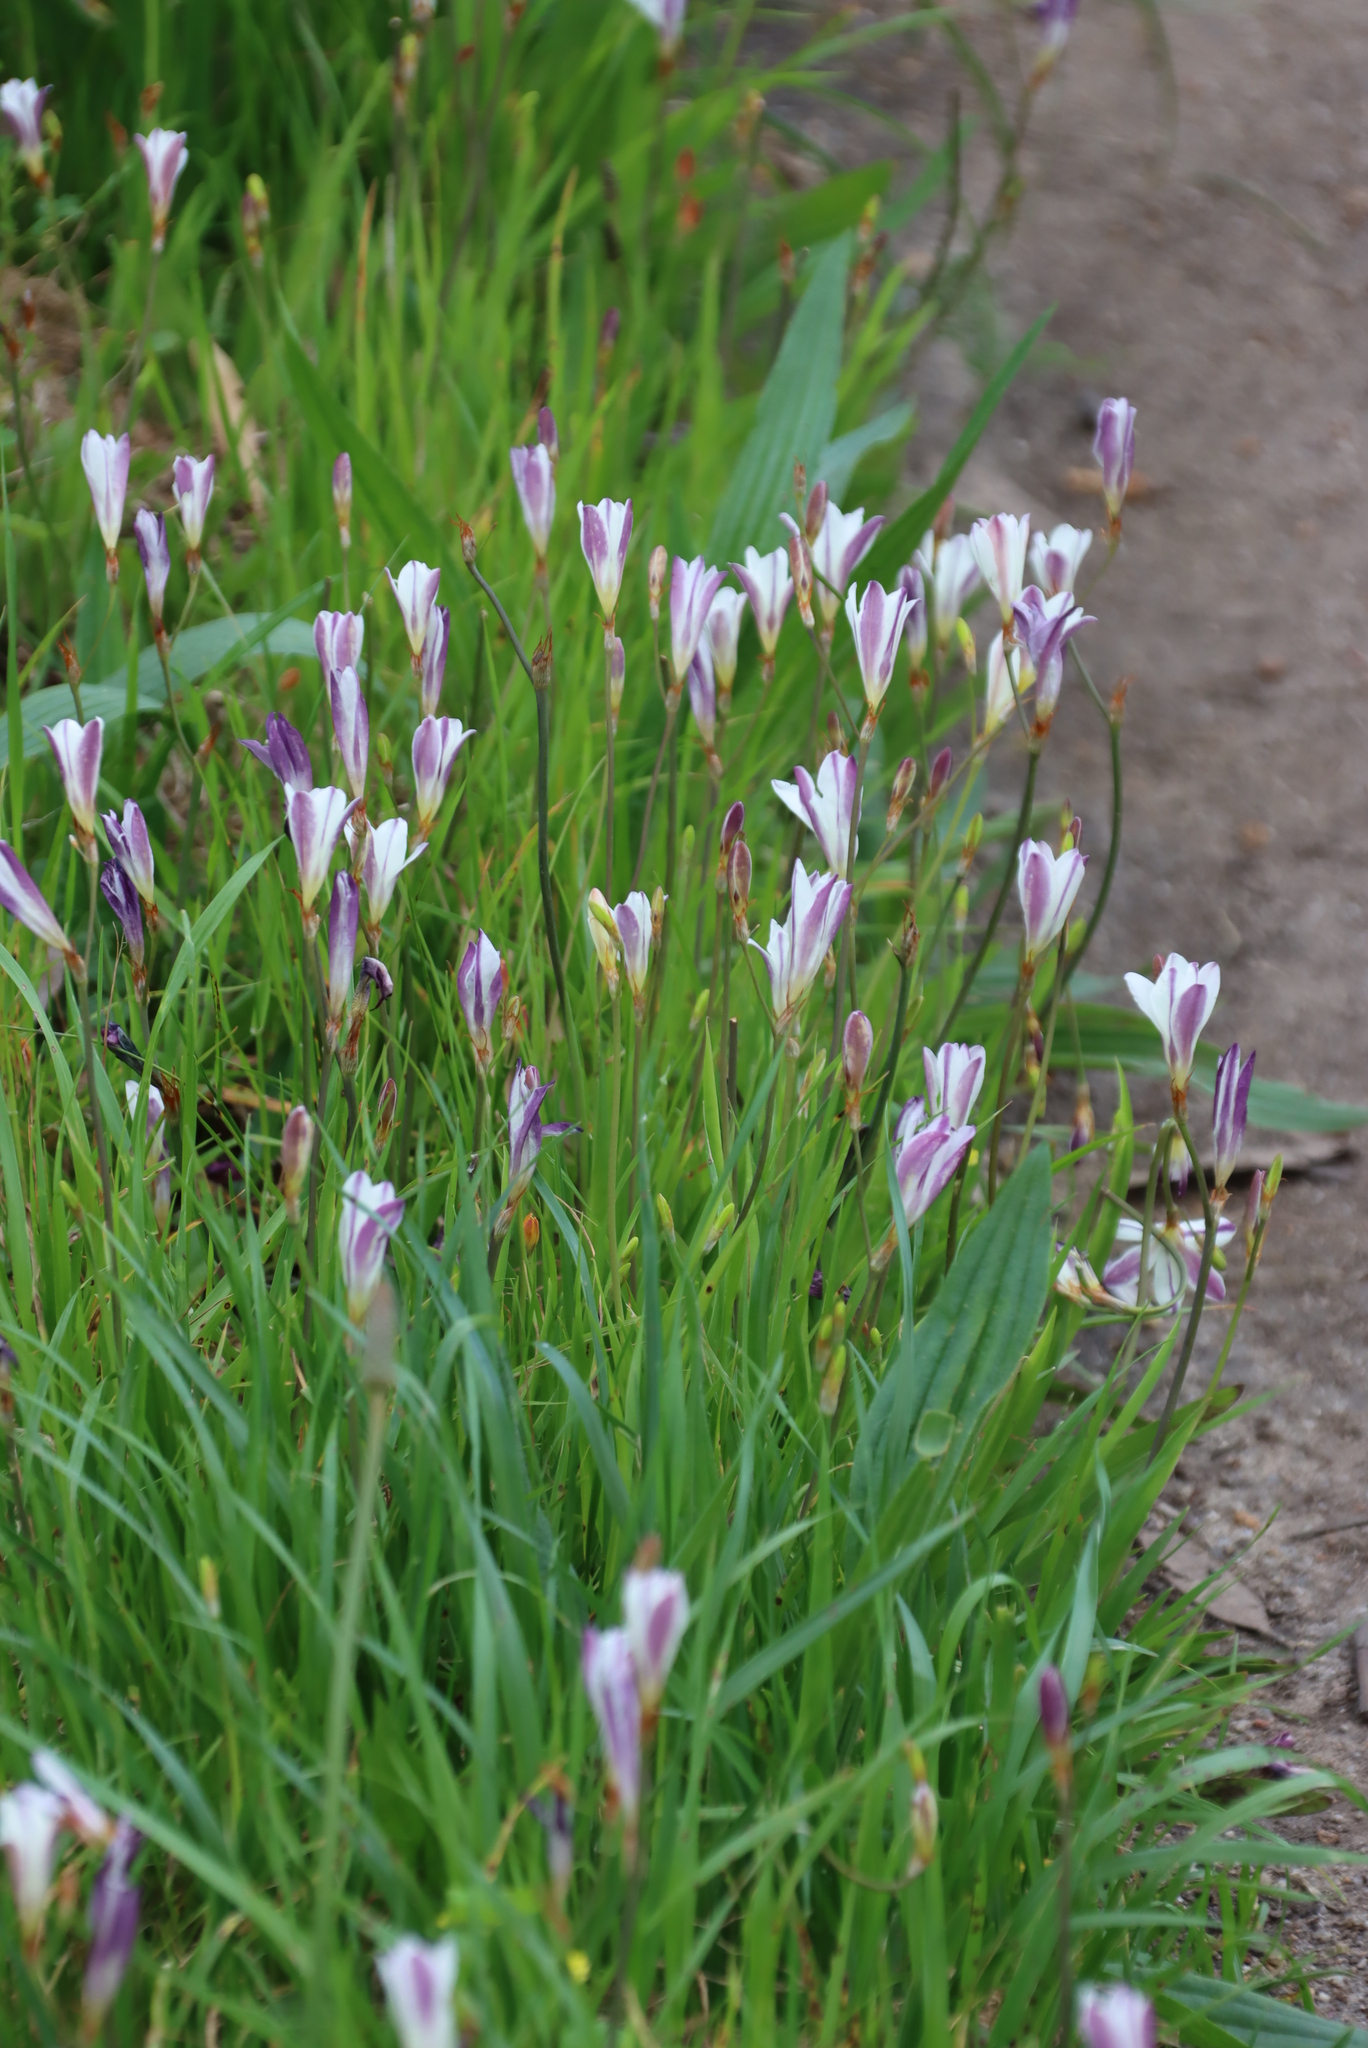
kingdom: Plantae
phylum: Tracheophyta
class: Liliopsida
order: Asparagales
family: Iridaceae
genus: Sparaxis
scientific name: Sparaxis bulbifera
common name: Harlequin-flower
